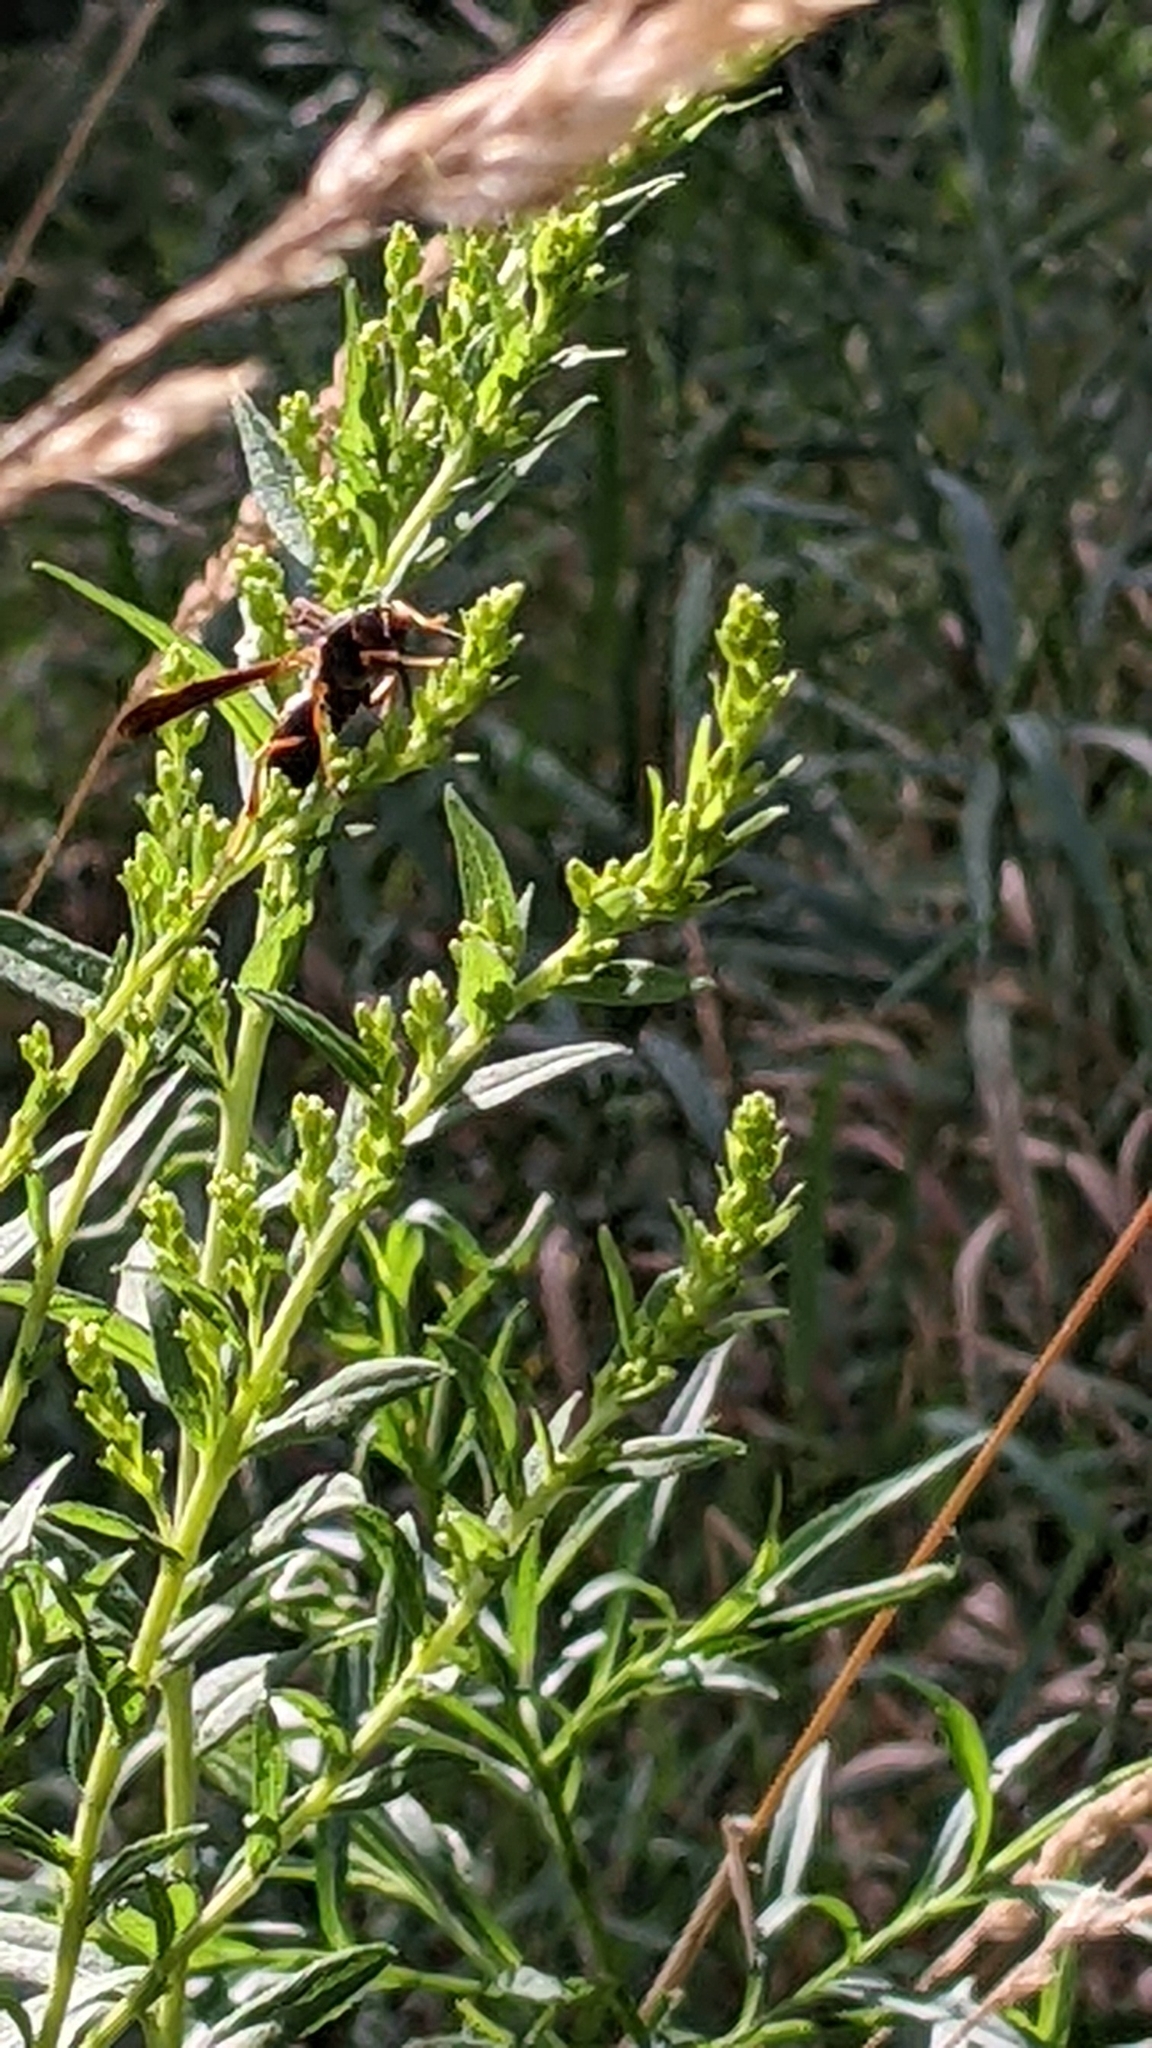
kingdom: Animalia
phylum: Arthropoda
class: Insecta
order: Hymenoptera
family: Eumenidae
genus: Polistes
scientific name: Polistes fuscatus
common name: Dark paper wasp
